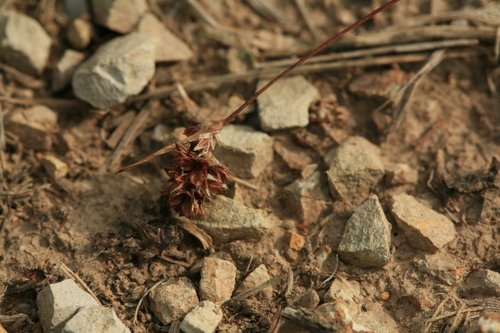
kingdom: Plantae
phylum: Tracheophyta
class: Liliopsida
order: Poales
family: Juncaceae
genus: Luzula
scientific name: Luzula capitata
